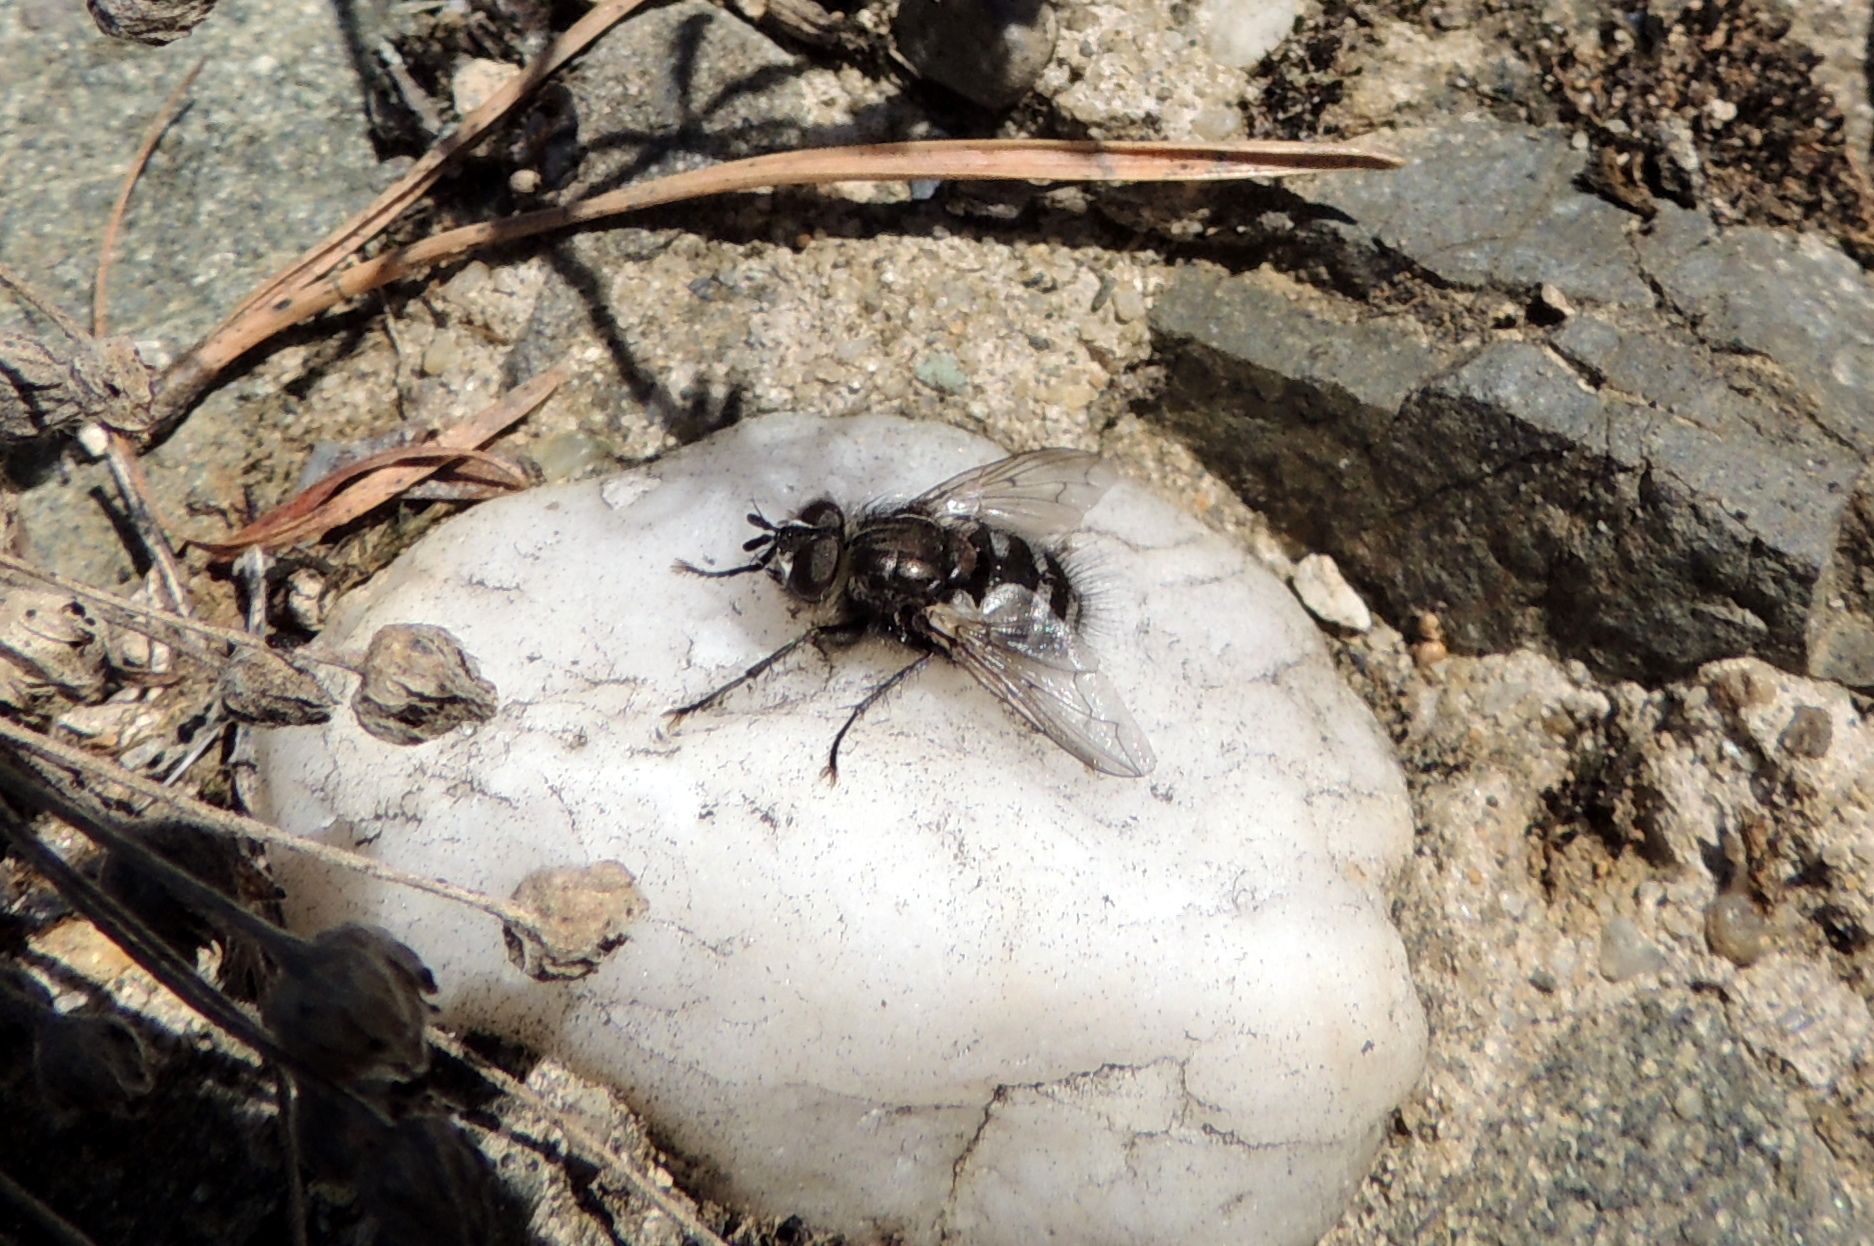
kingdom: Animalia
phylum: Arthropoda
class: Insecta
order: Diptera
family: Tachinidae
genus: Panzeria
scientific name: Panzeria puparum
